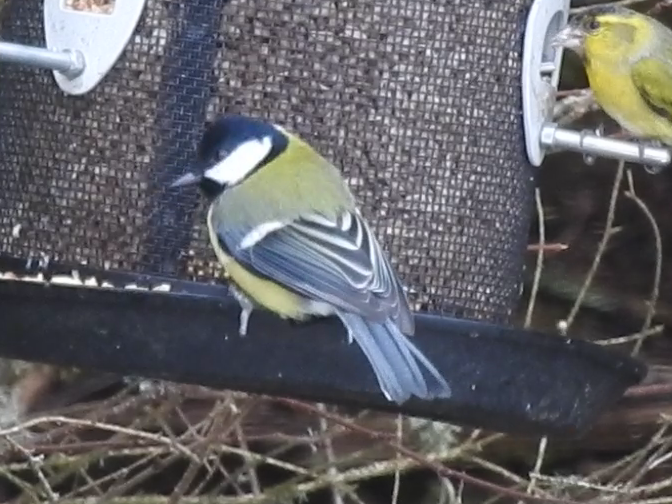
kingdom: Animalia
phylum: Chordata
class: Aves
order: Passeriformes
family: Paridae
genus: Parus
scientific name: Parus major
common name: Great tit
